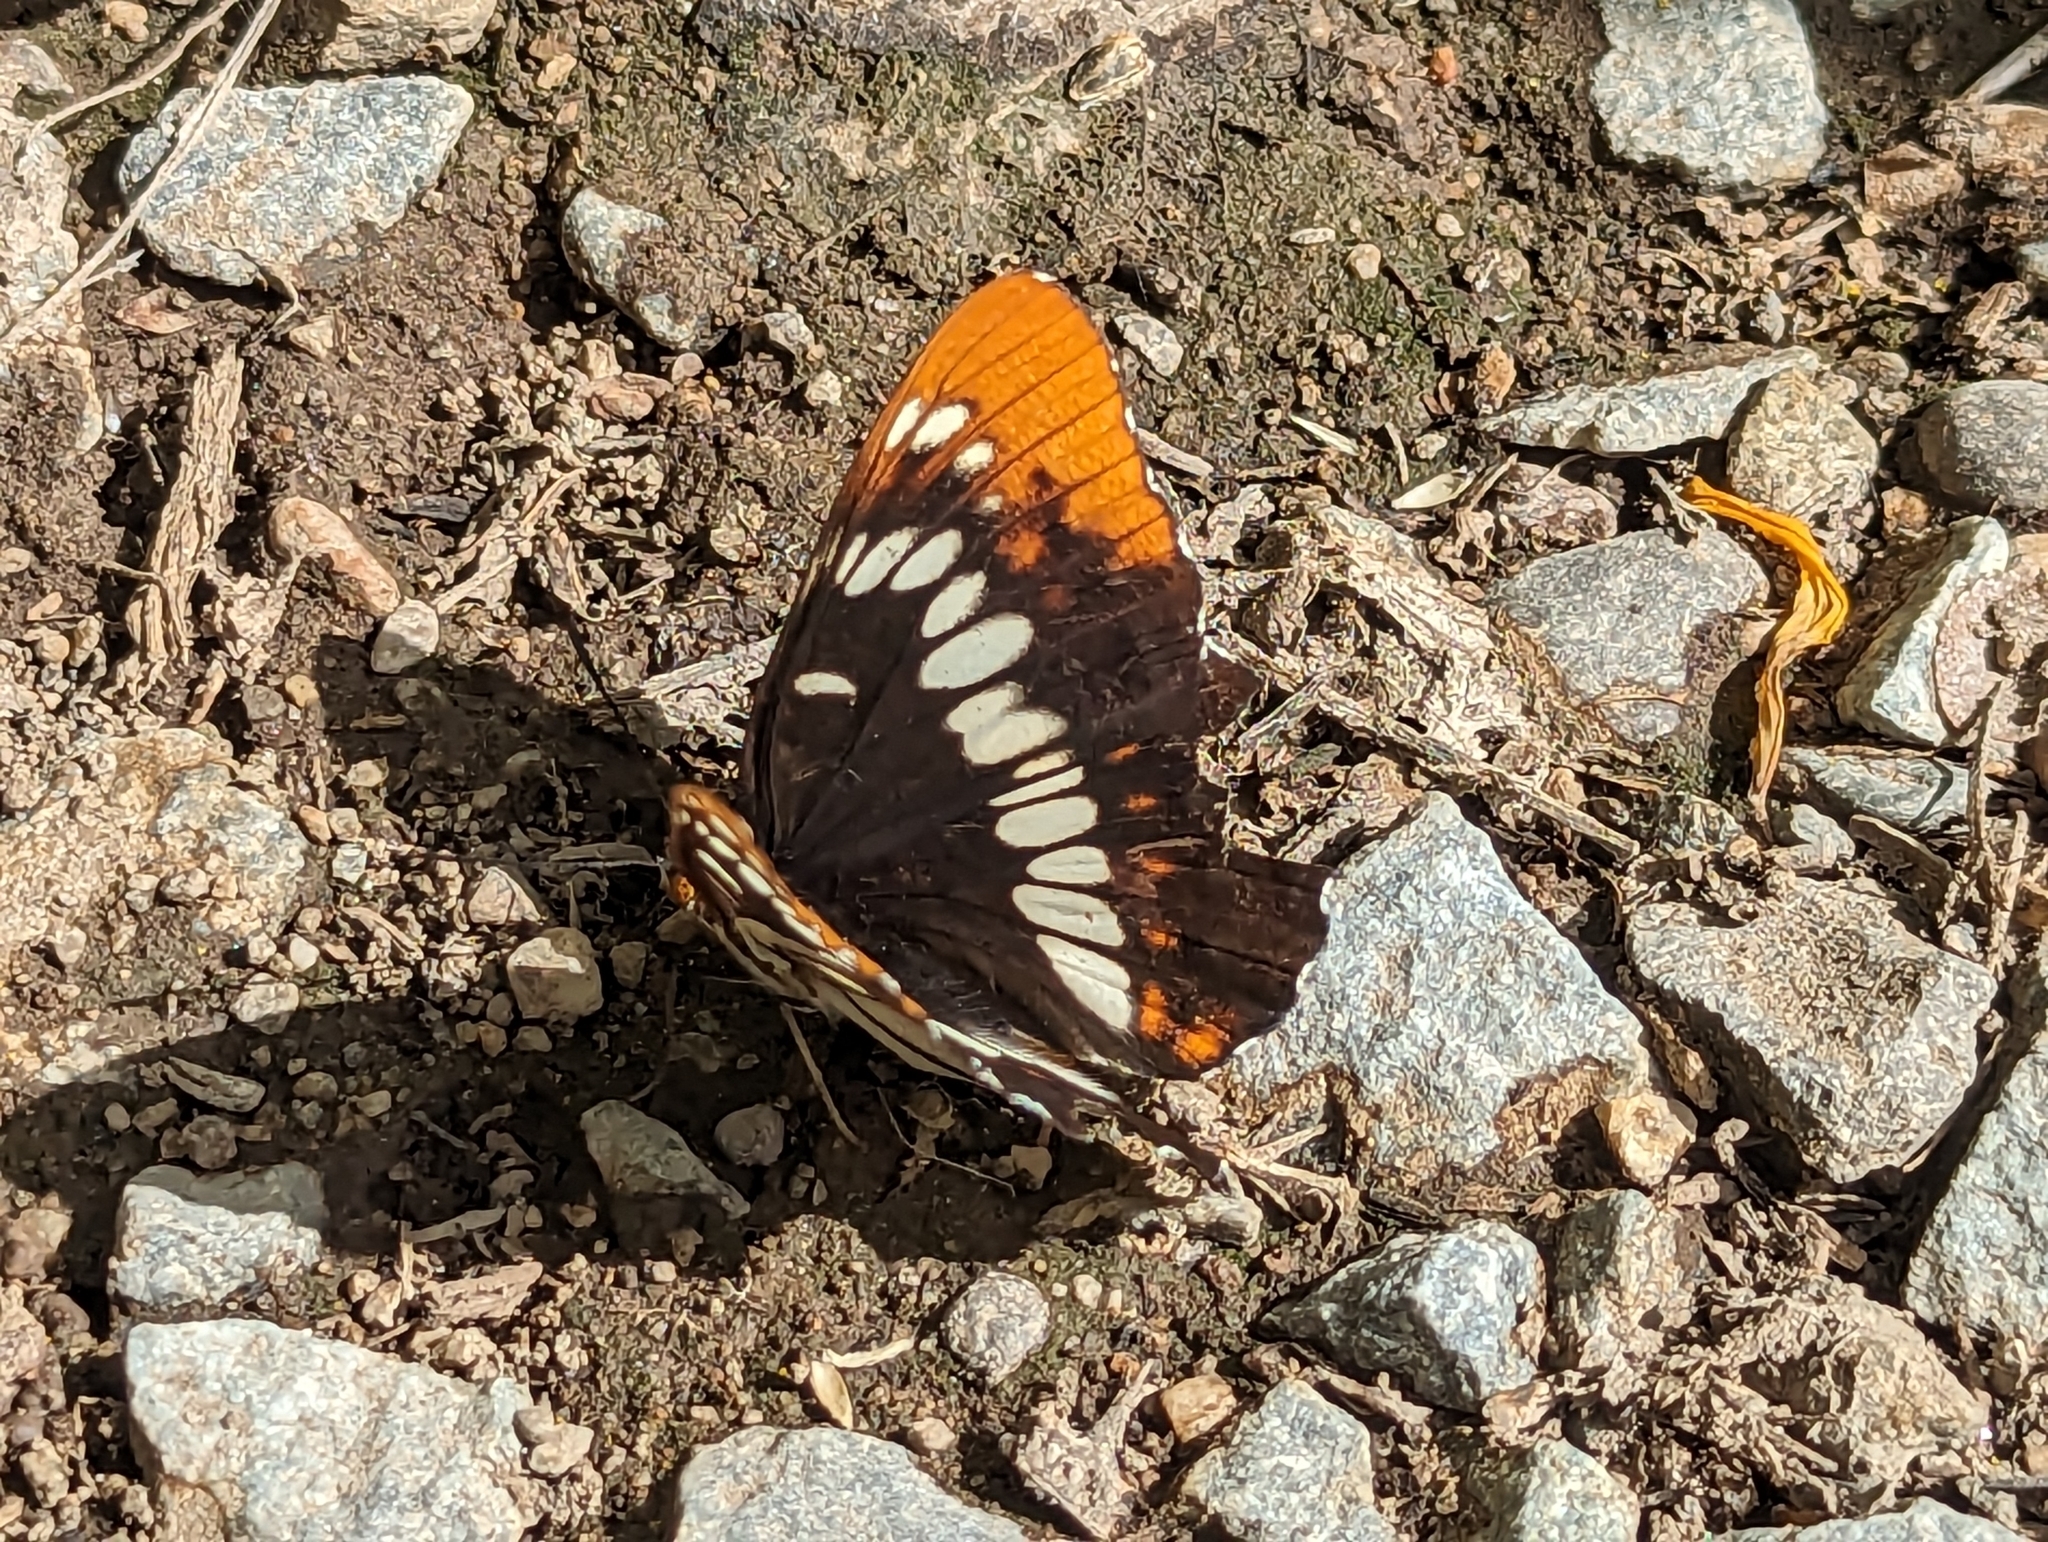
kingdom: Animalia
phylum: Arthropoda
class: Insecta
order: Lepidoptera
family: Nymphalidae
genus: Limenitis
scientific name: Limenitis lorquini
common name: Lorquin's admiral
